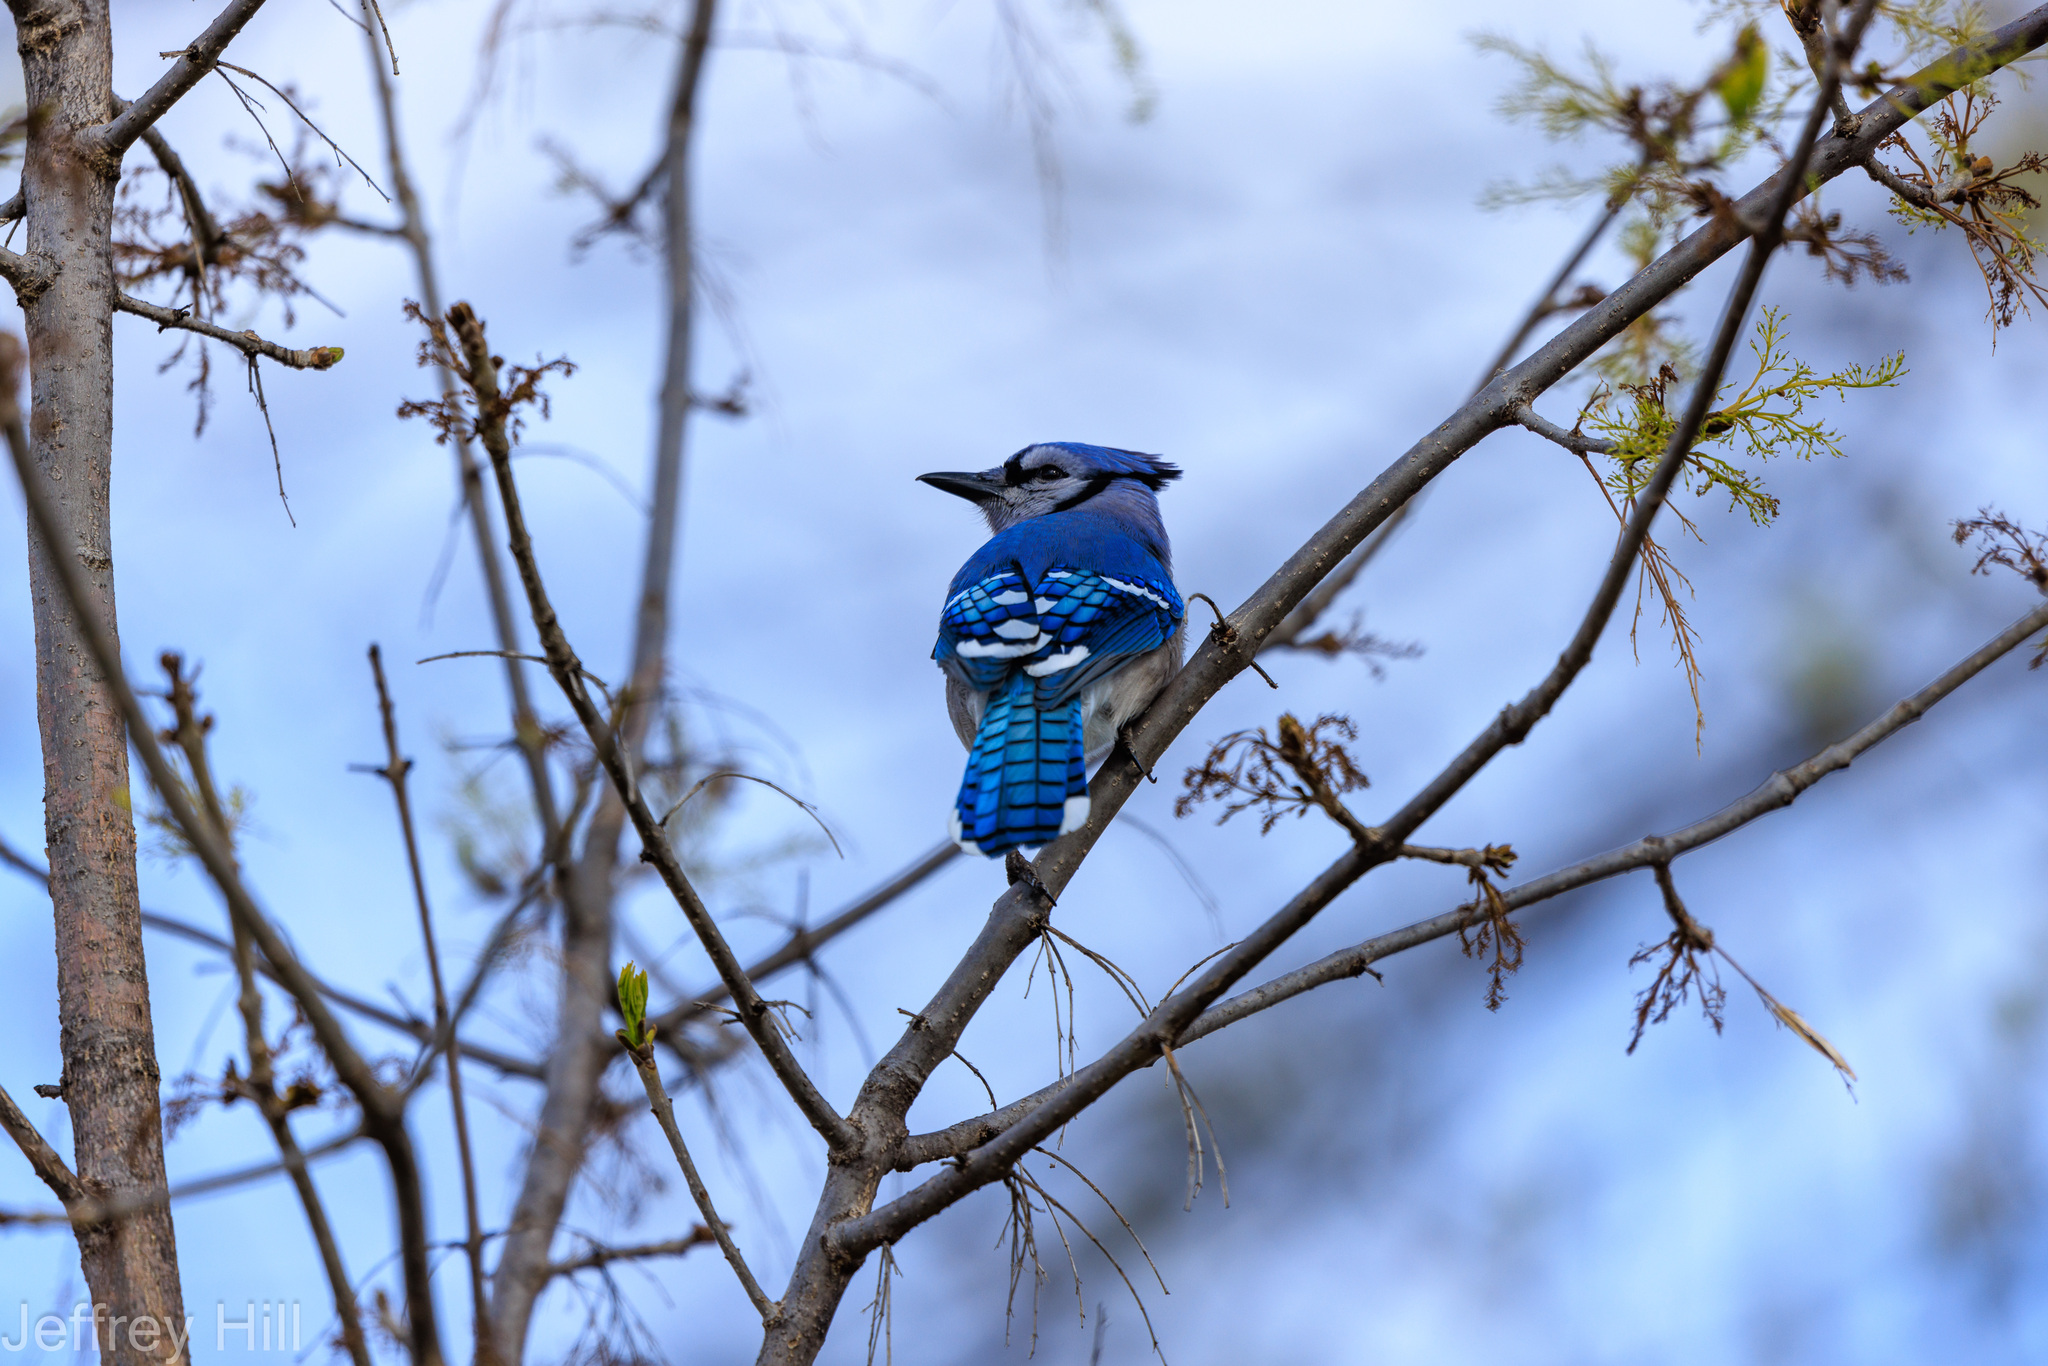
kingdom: Animalia
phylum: Chordata
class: Aves
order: Passeriformes
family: Corvidae
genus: Cyanocitta
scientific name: Cyanocitta cristata
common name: Blue jay
